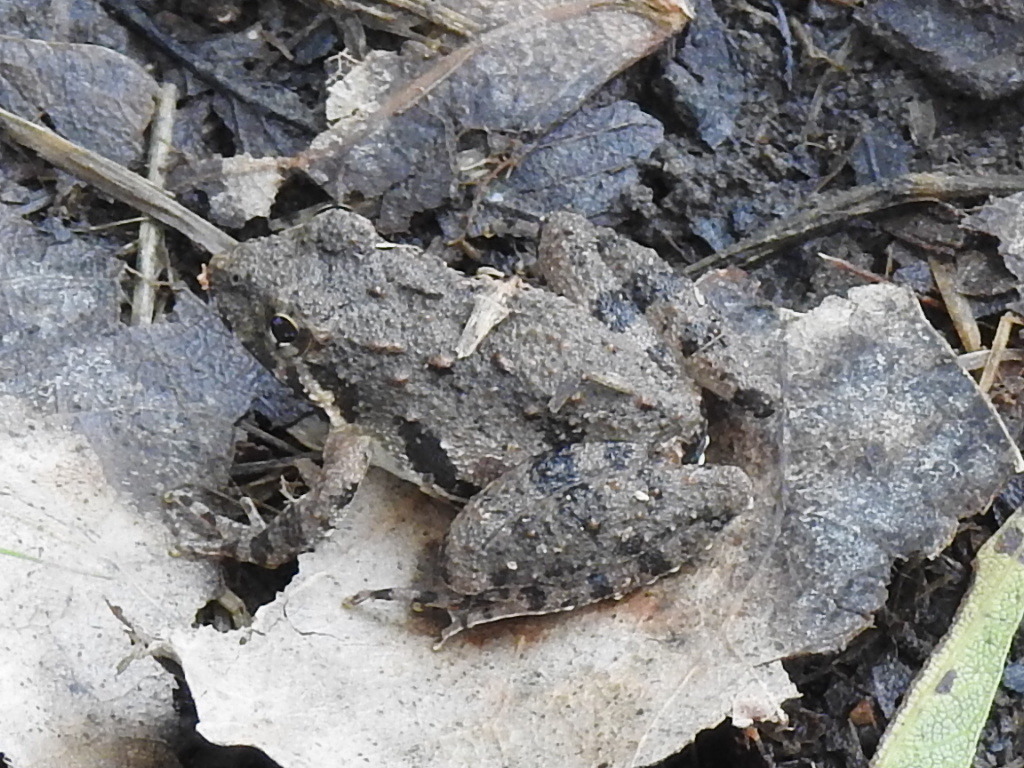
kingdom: Animalia
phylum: Chordata
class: Amphibia
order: Anura
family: Hylidae
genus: Acris
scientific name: Acris blanchardi
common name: Blanchard's cricket frog
